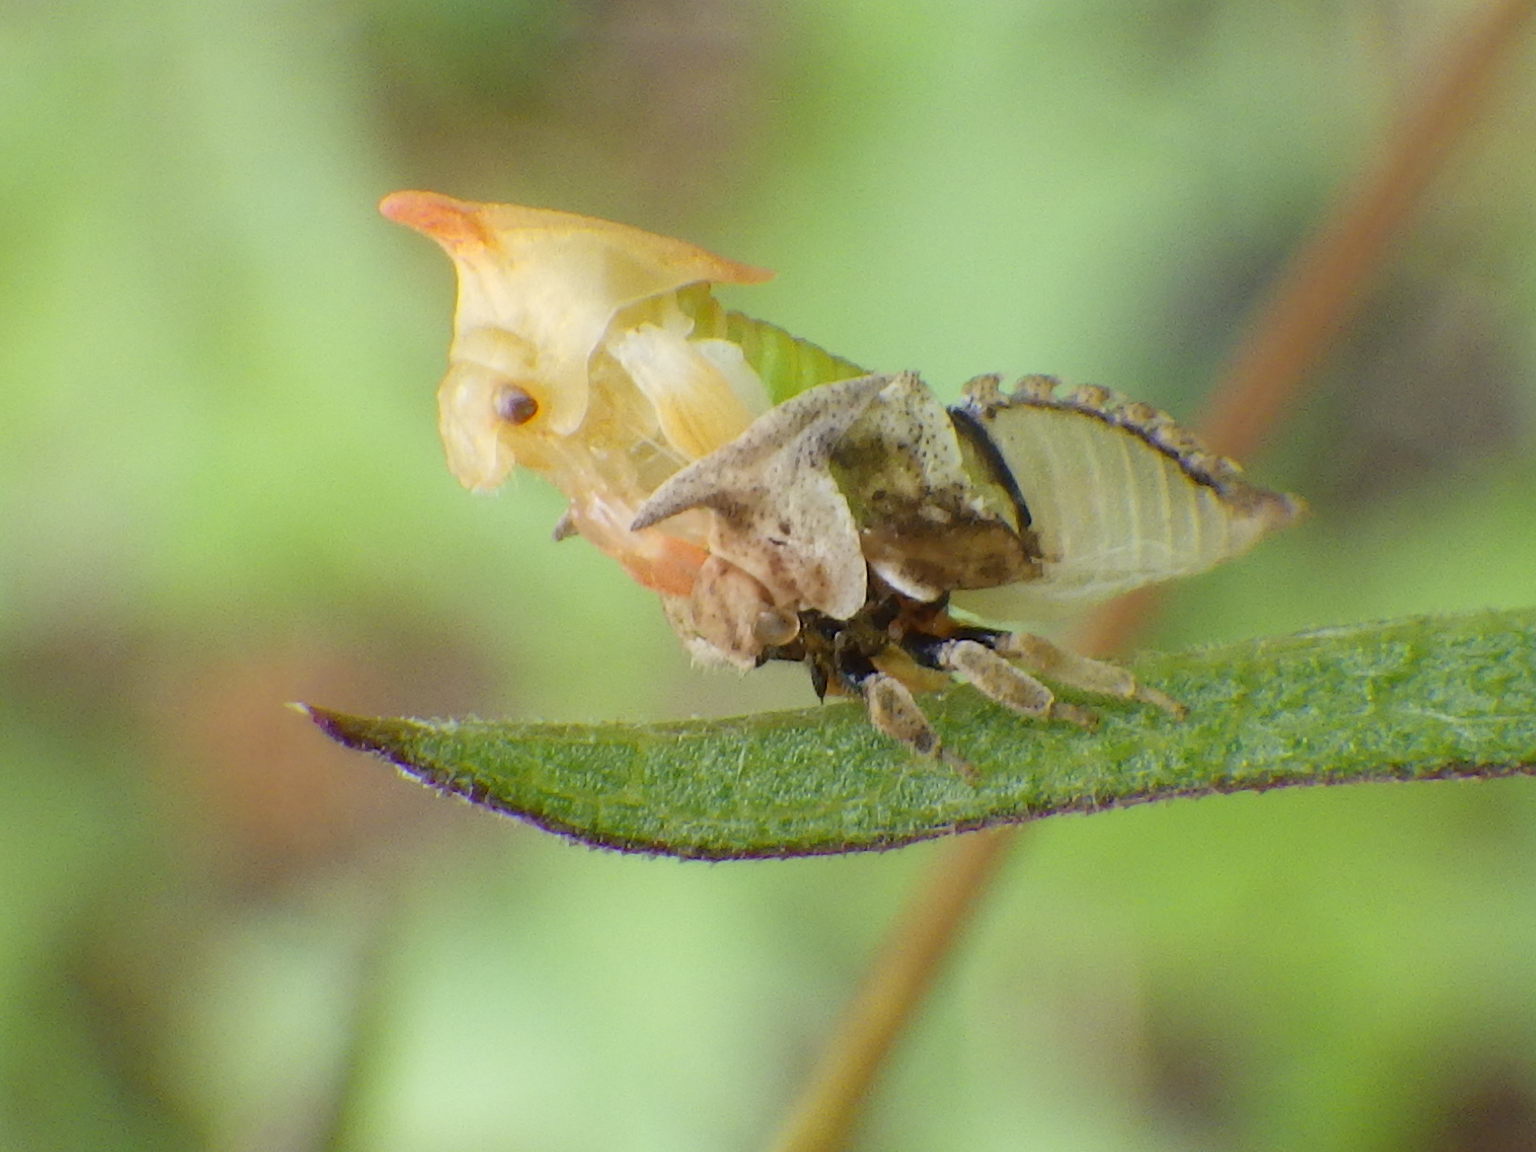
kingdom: Animalia
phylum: Arthropoda
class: Insecta
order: Hemiptera
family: Membracidae
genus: Enchenopa
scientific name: Enchenopa latipes
